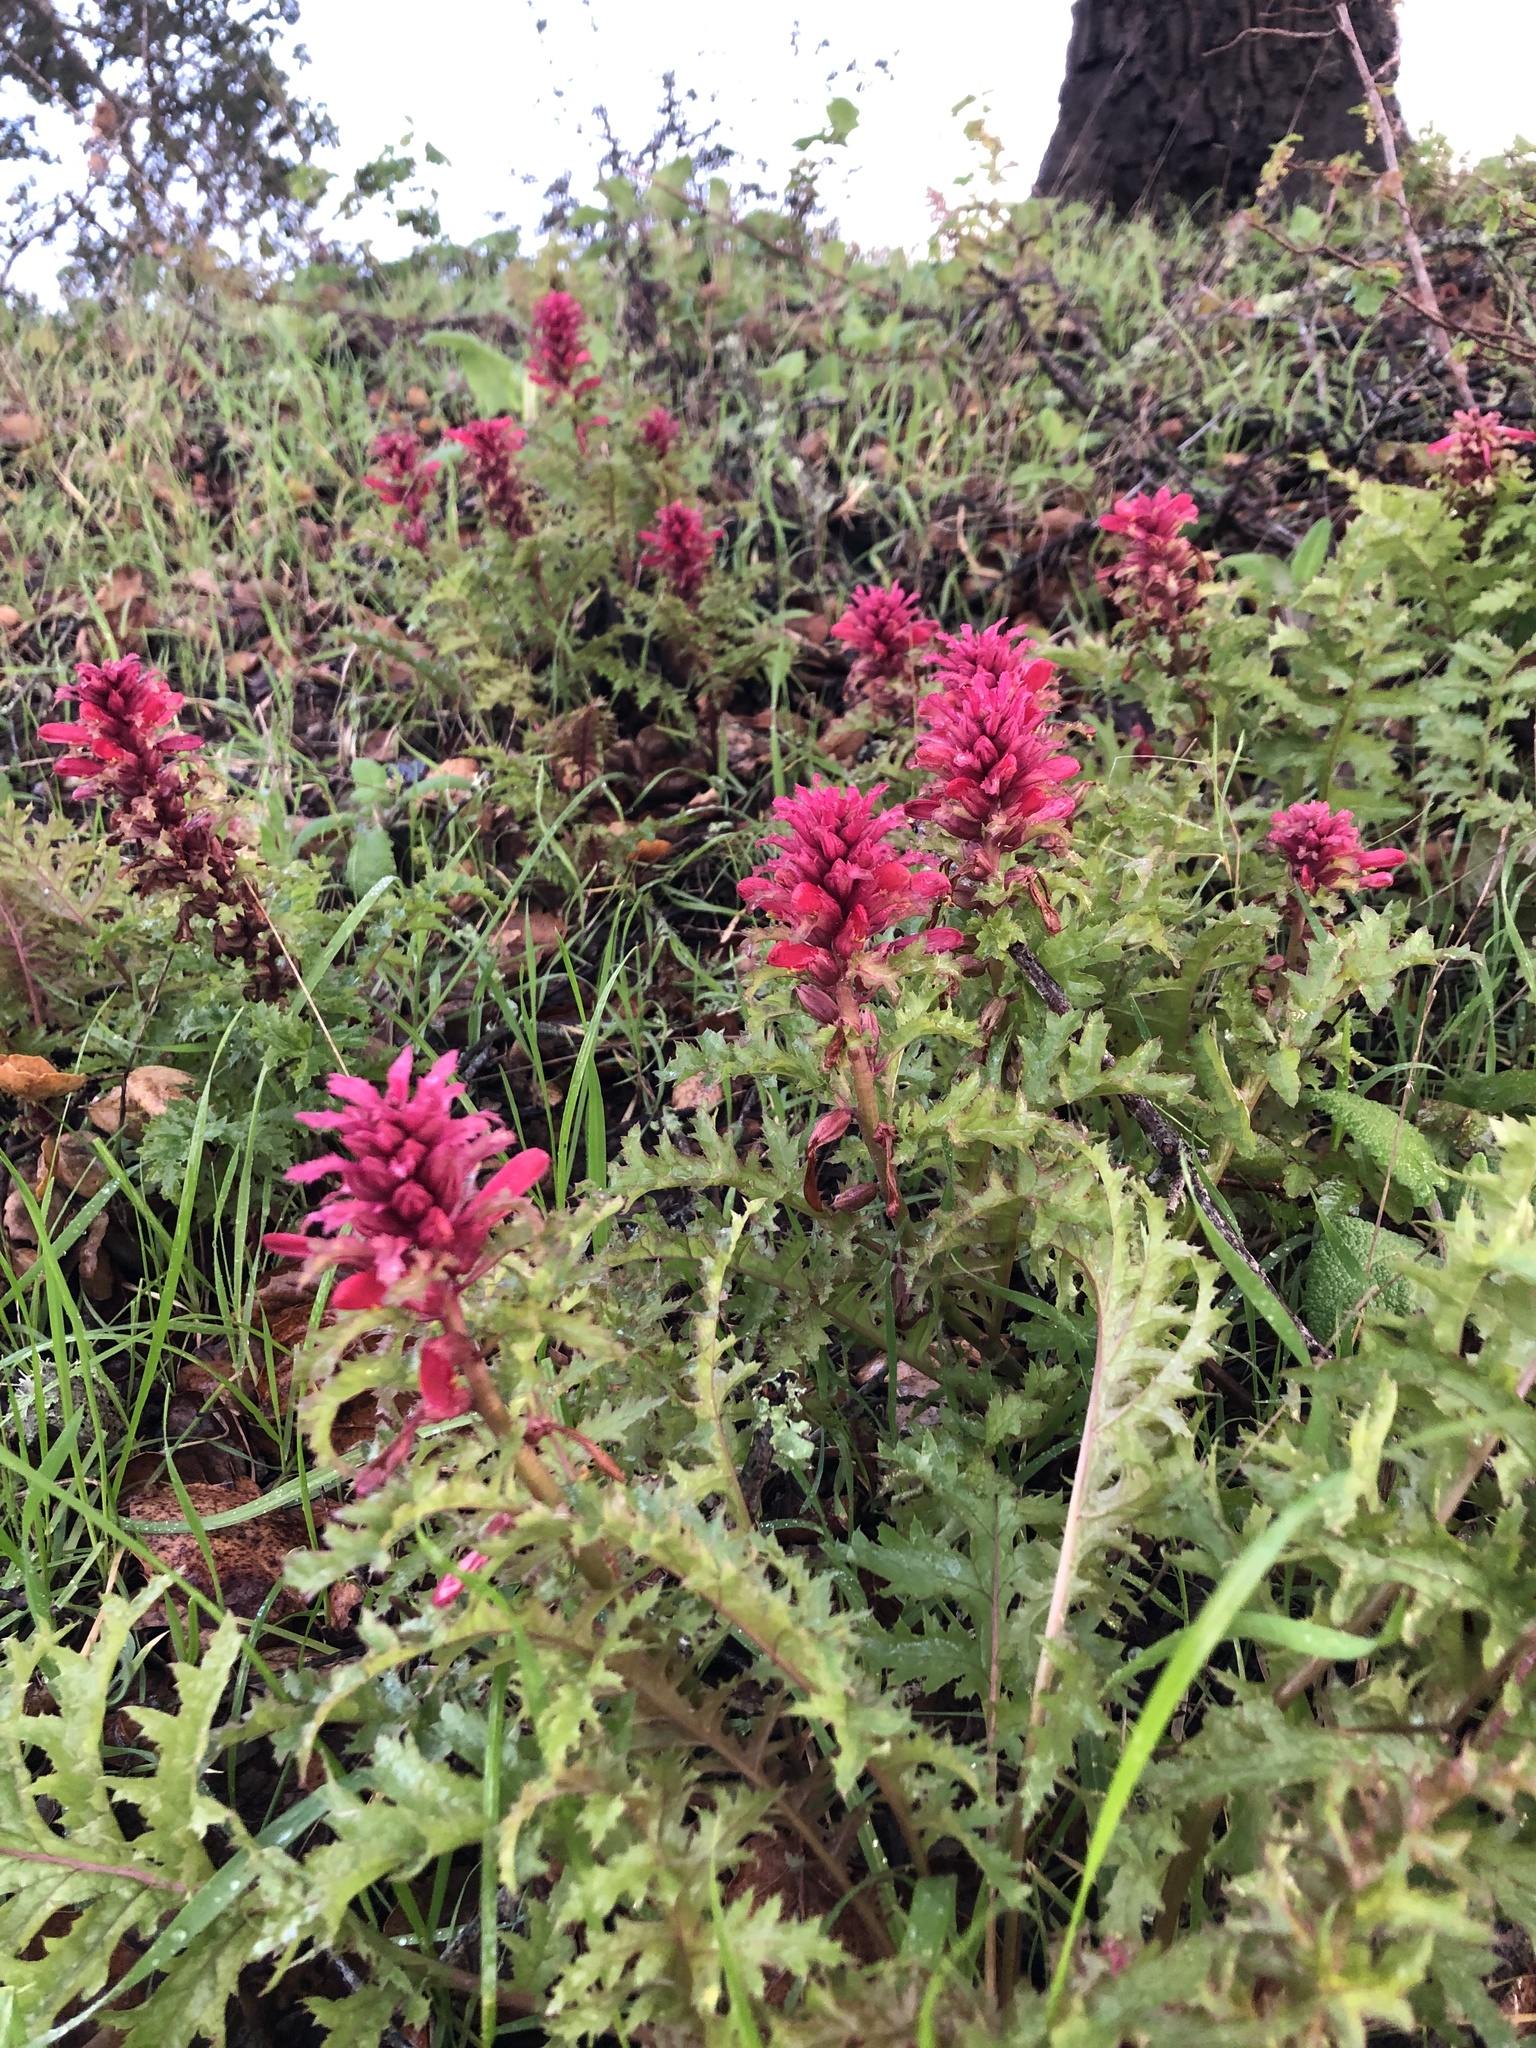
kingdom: Plantae
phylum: Tracheophyta
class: Magnoliopsida
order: Lamiales
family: Orobanchaceae
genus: Pedicularis
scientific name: Pedicularis densiflora
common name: Indian warrior
